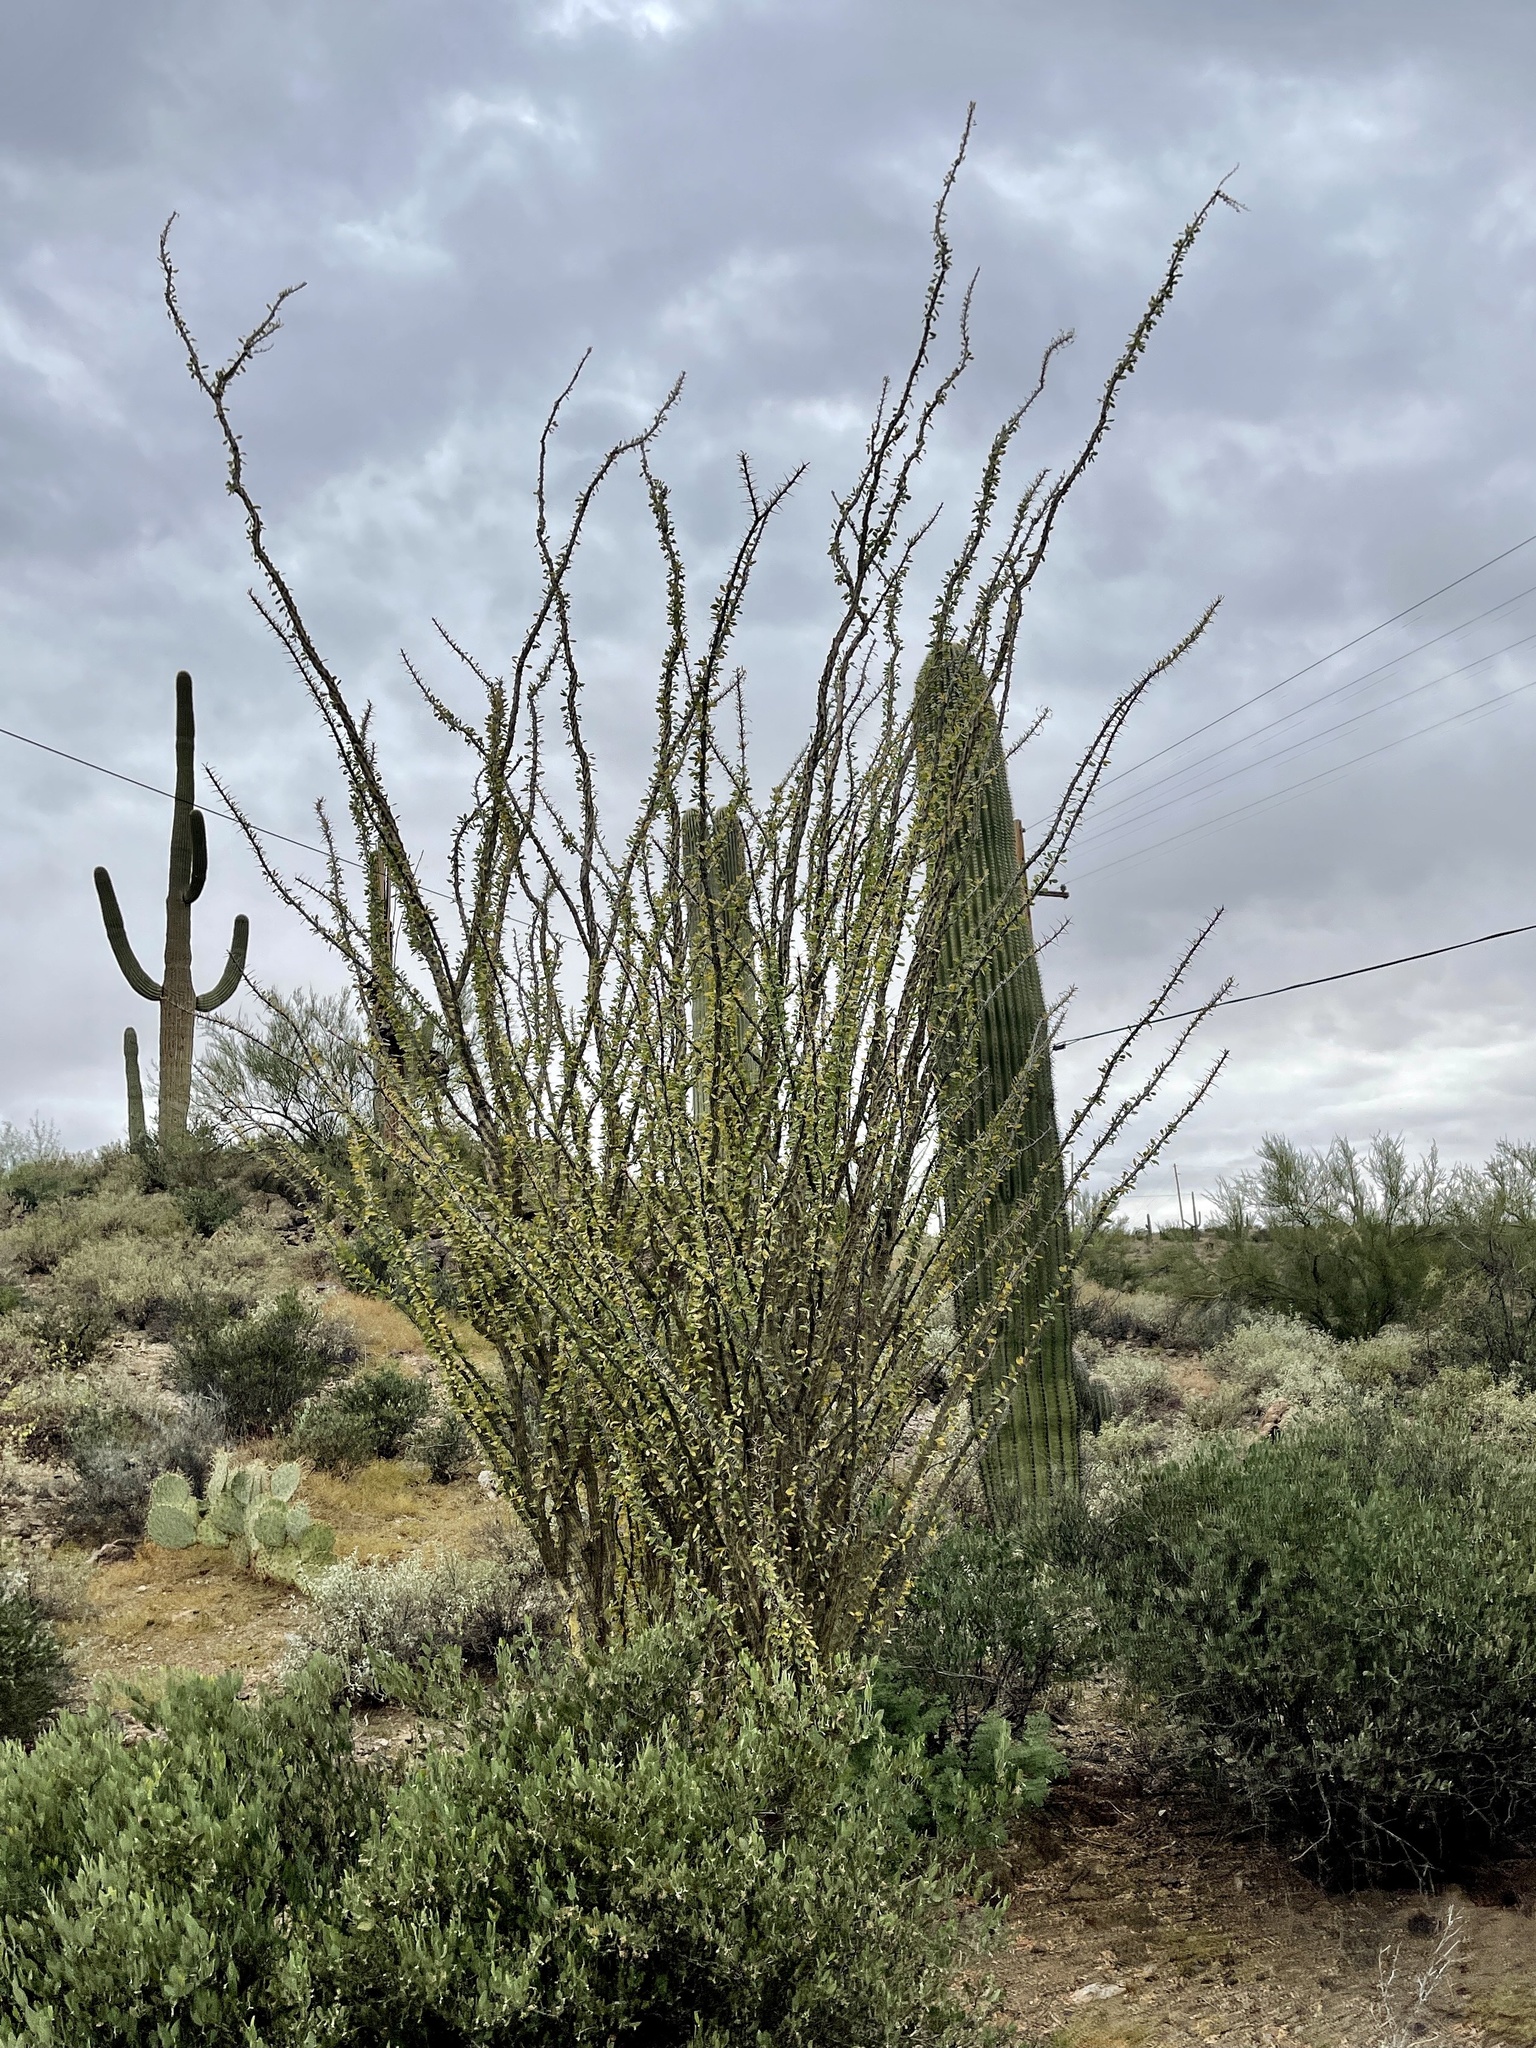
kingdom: Plantae
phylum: Tracheophyta
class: Magnoliopsida
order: Ericales
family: Fouquieriaceae
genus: Fouquieria
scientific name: Fouquieria splendens
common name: Vine-cactus
